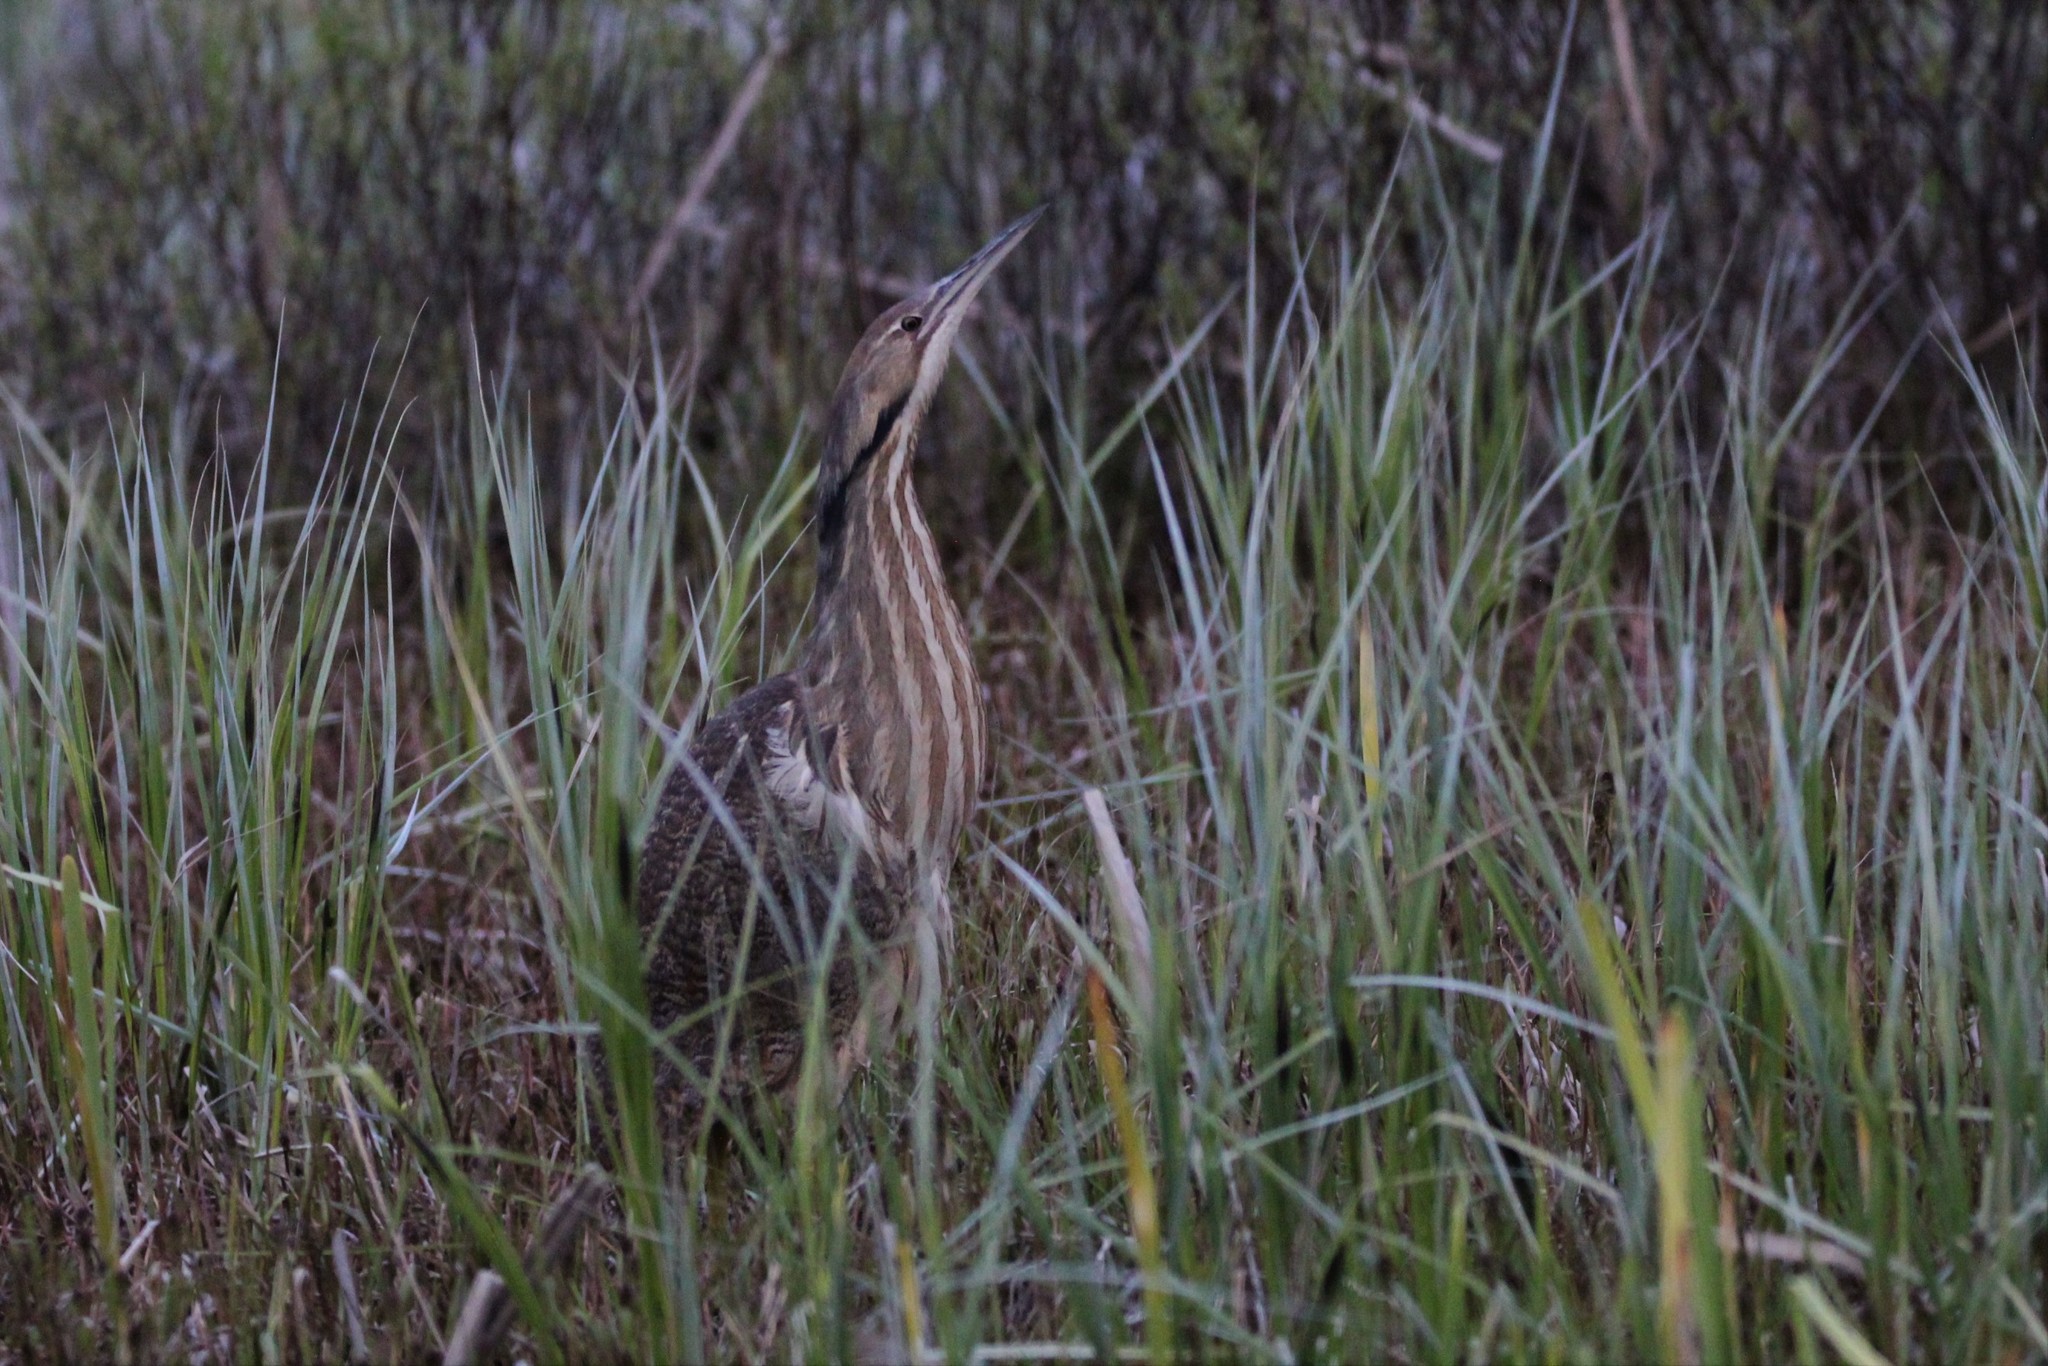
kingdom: Animalia
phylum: Chordata
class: Aves
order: Pelecaniformes
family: Ardeidae
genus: Botaurus
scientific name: Botaurus lentiginosus
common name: American bittern
